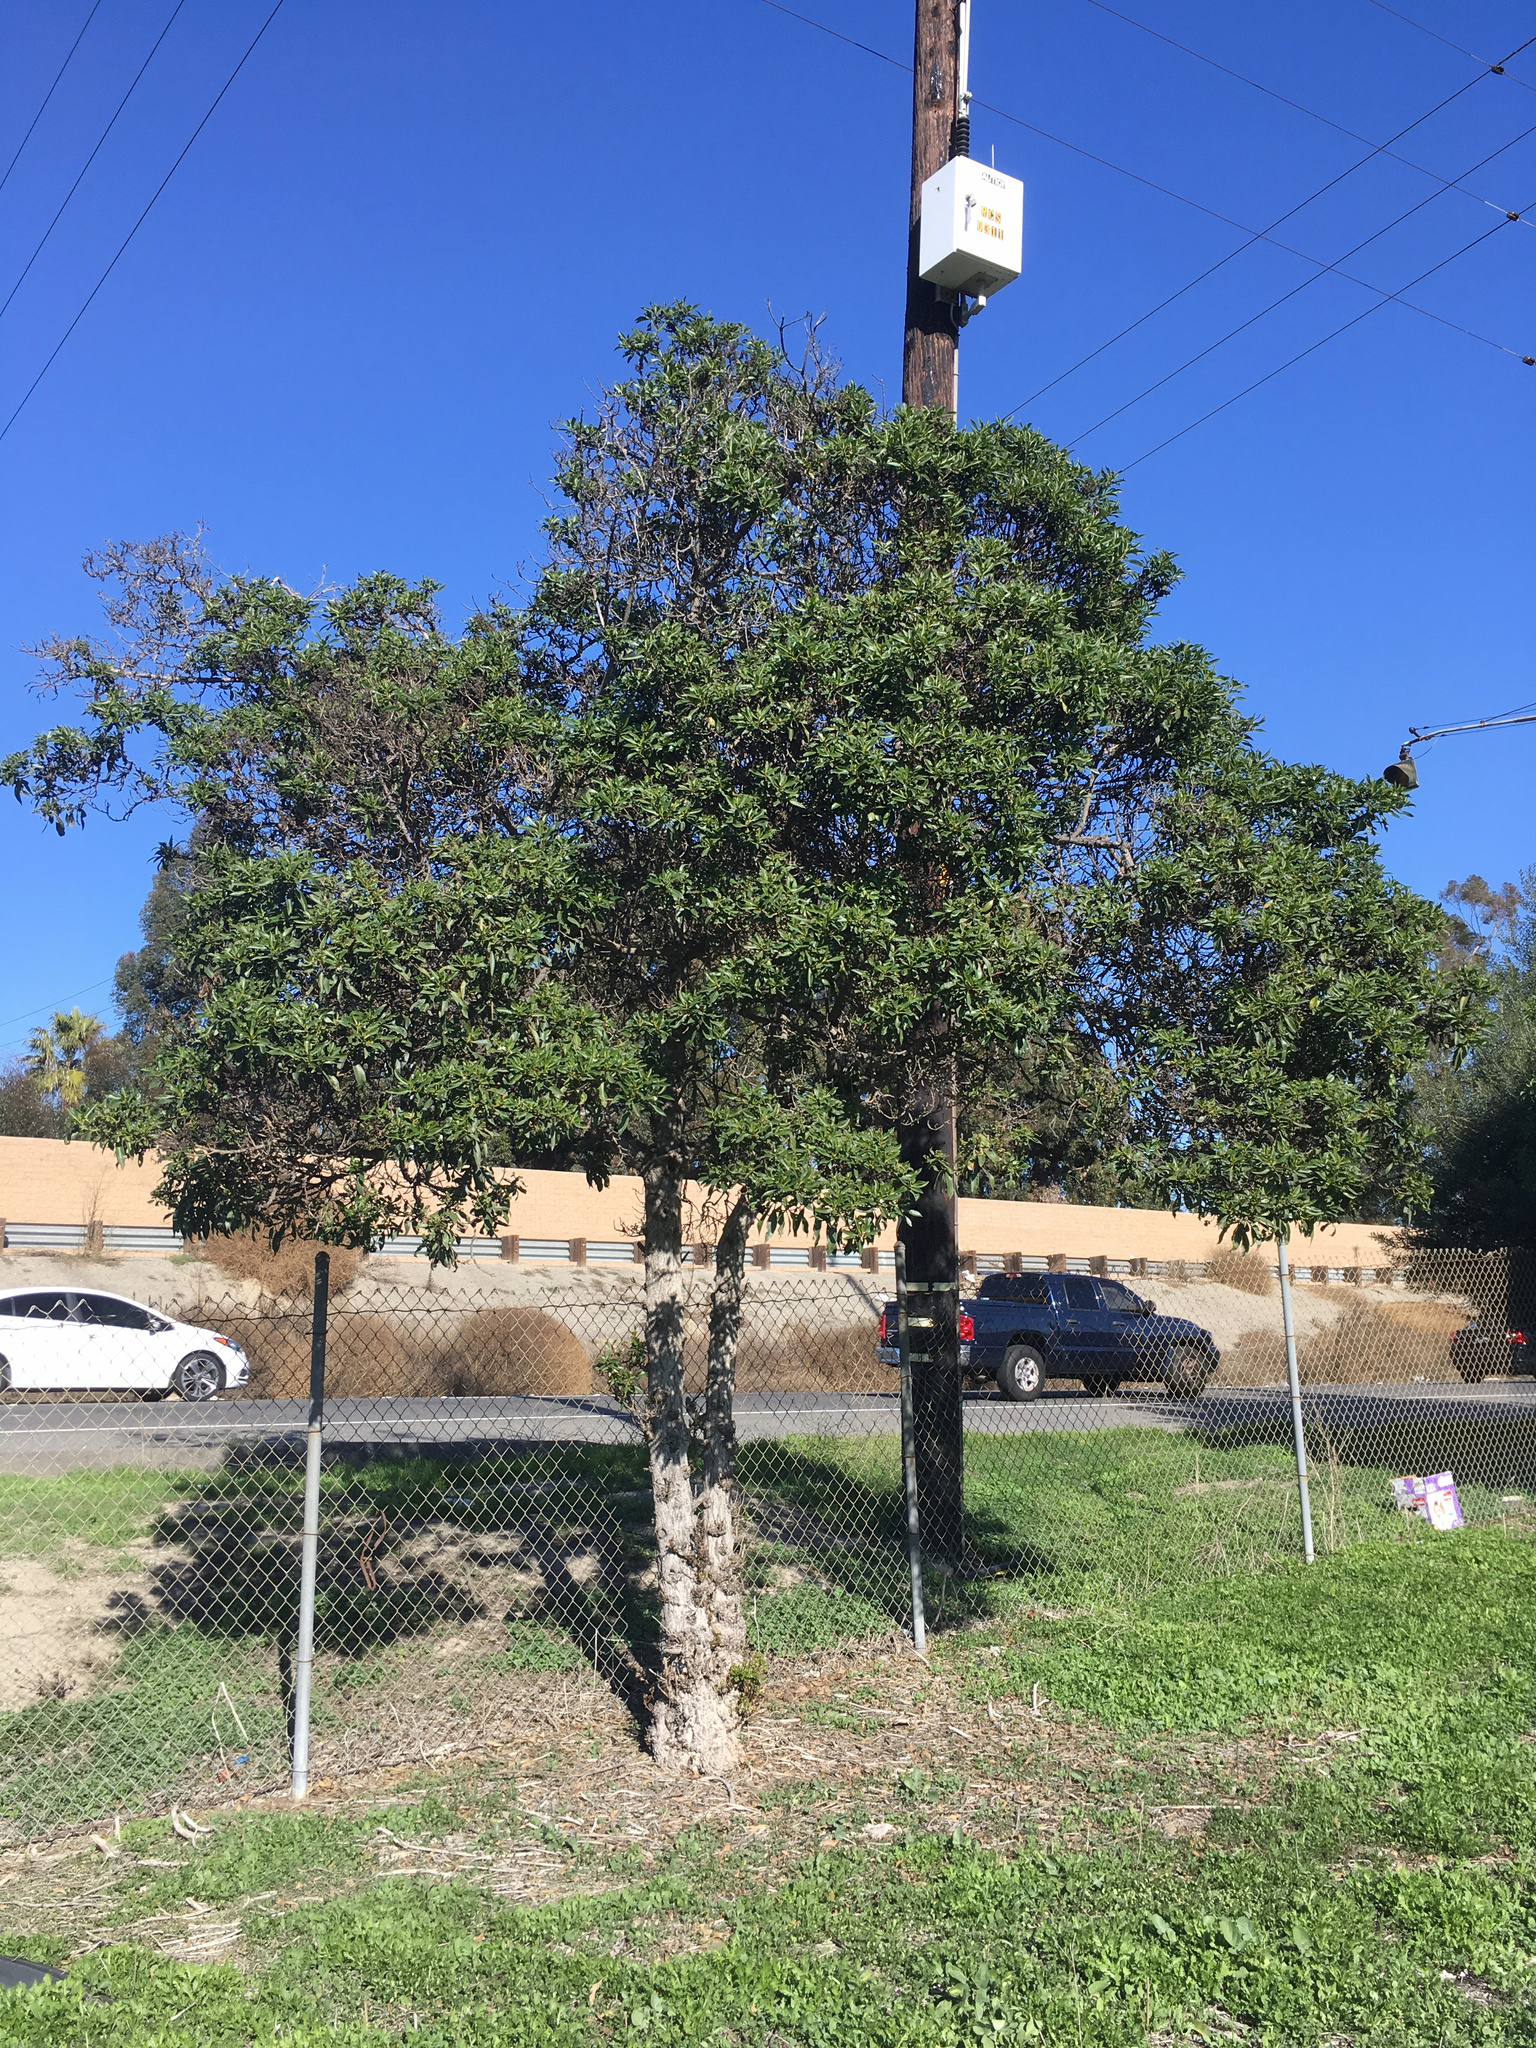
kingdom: Plantae
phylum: Tracheophyta
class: Magnoliopsida
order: Lamiales
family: Scrophulariaceae
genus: Myoporum
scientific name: Myoporum laetum
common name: Ngaio tree
